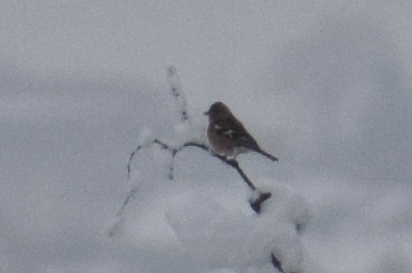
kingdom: Animalia
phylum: Chordata
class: Aves
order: Passeriformes
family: Fringillidae
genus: Fringilla
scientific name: Fringilla coelebs
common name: Common chaffinch
